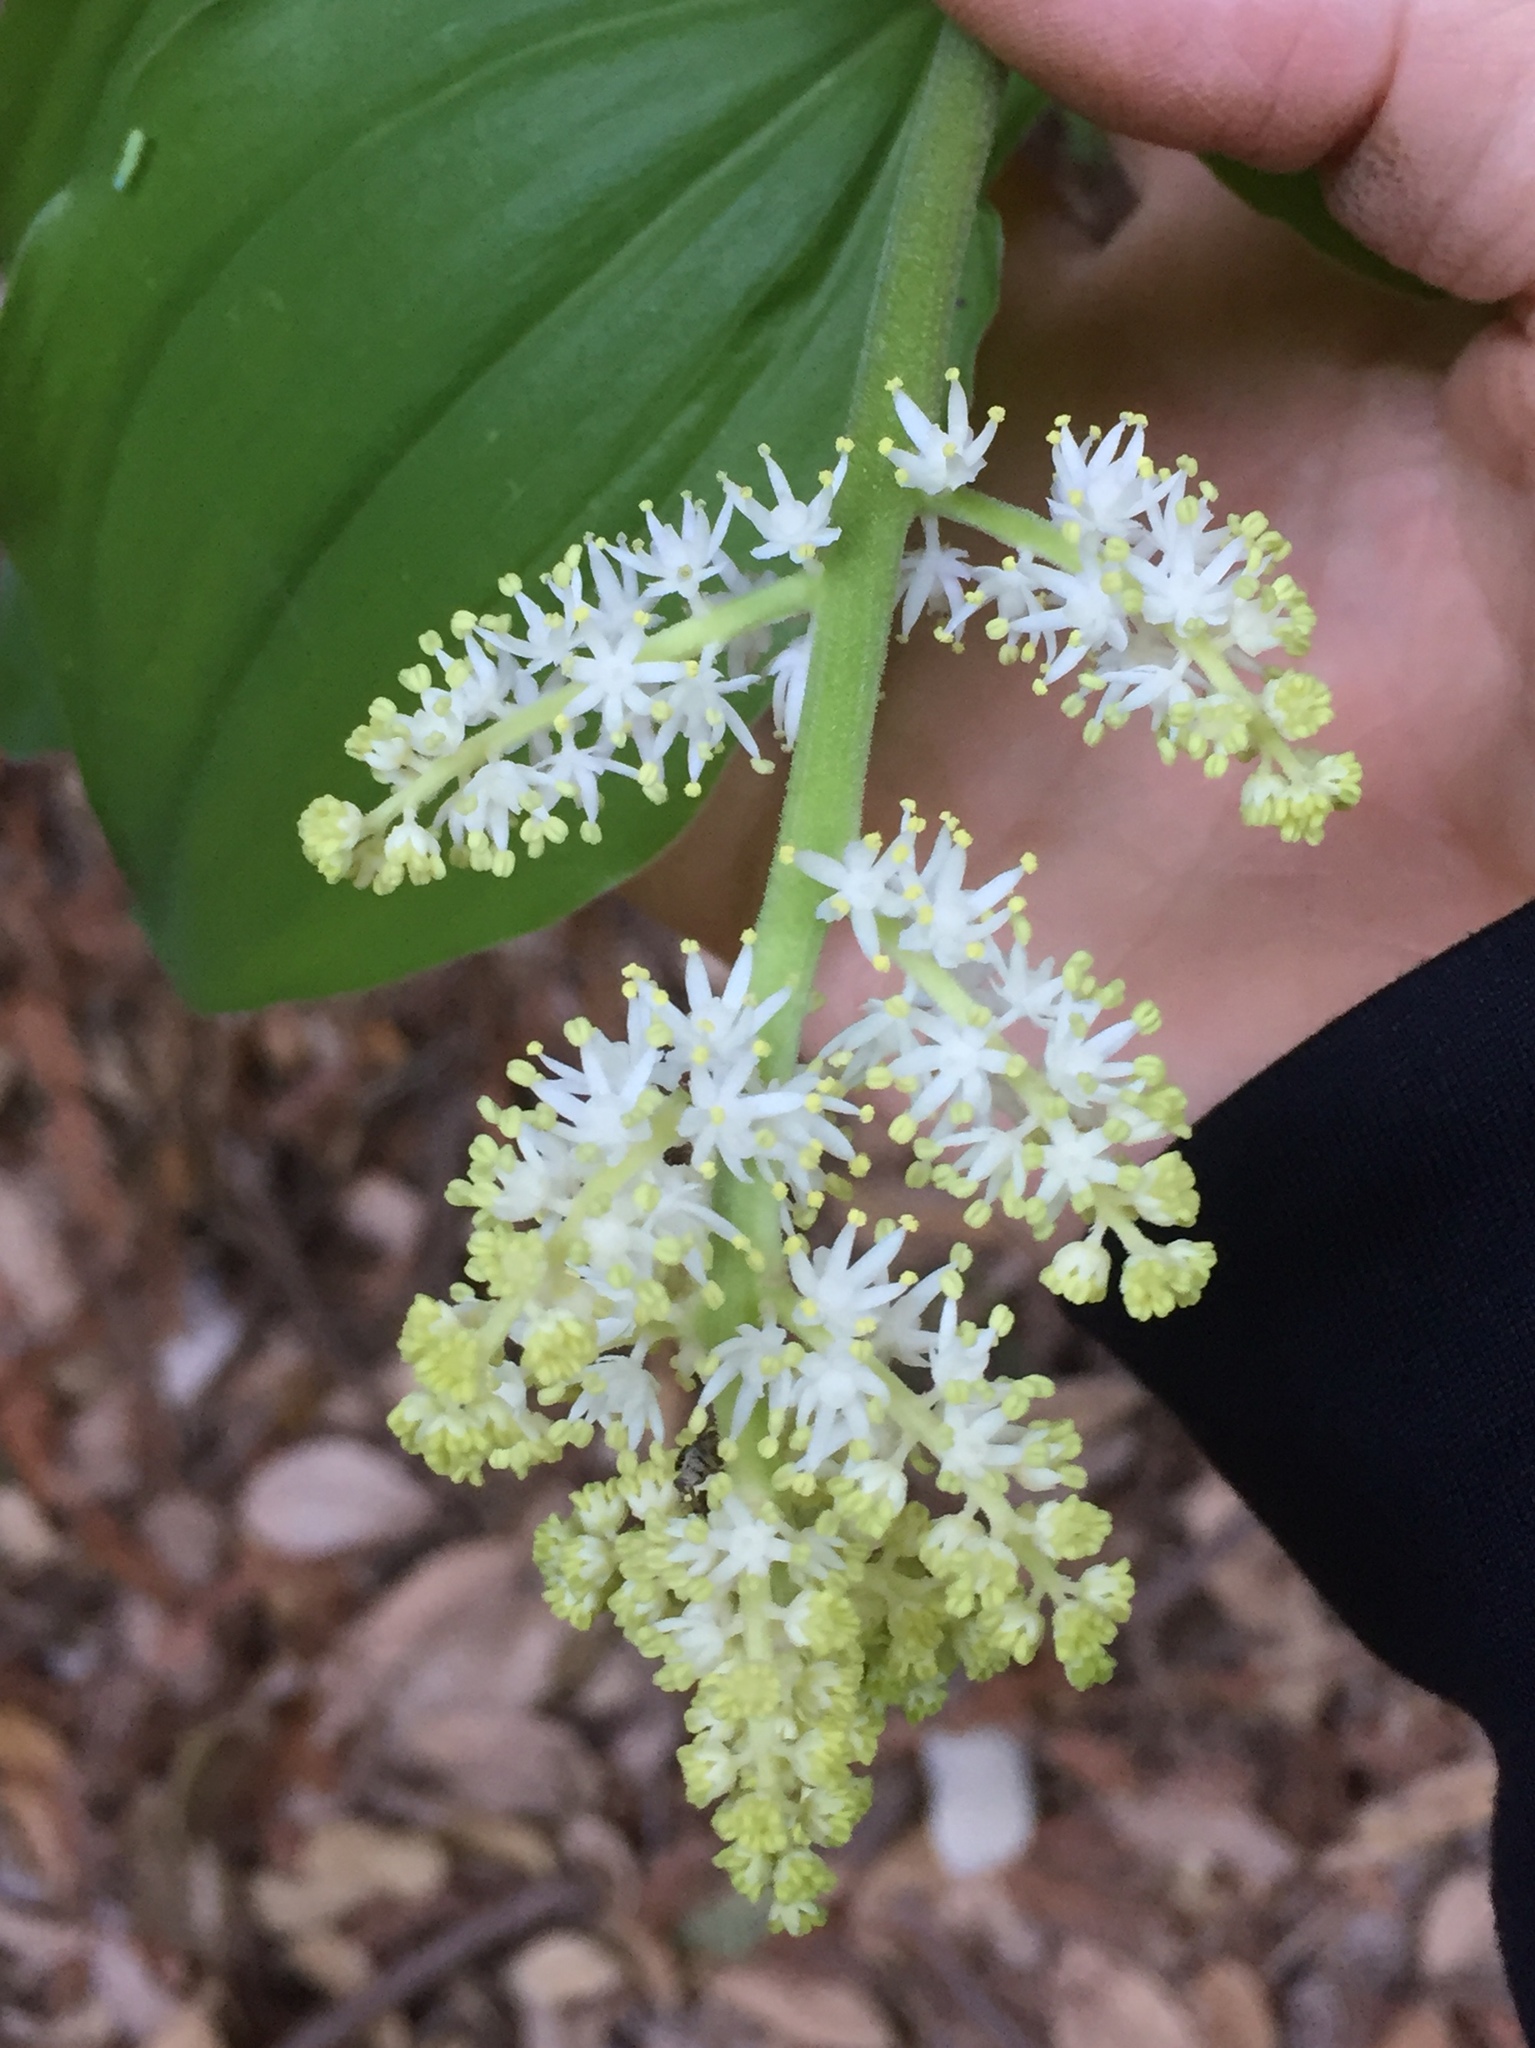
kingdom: Plantae
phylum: Tracheophyta
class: Liliopsida
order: Asparagales
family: Asparagaceae
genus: Maianthemum
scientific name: Maianthemum racemosum
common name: False spikenard
